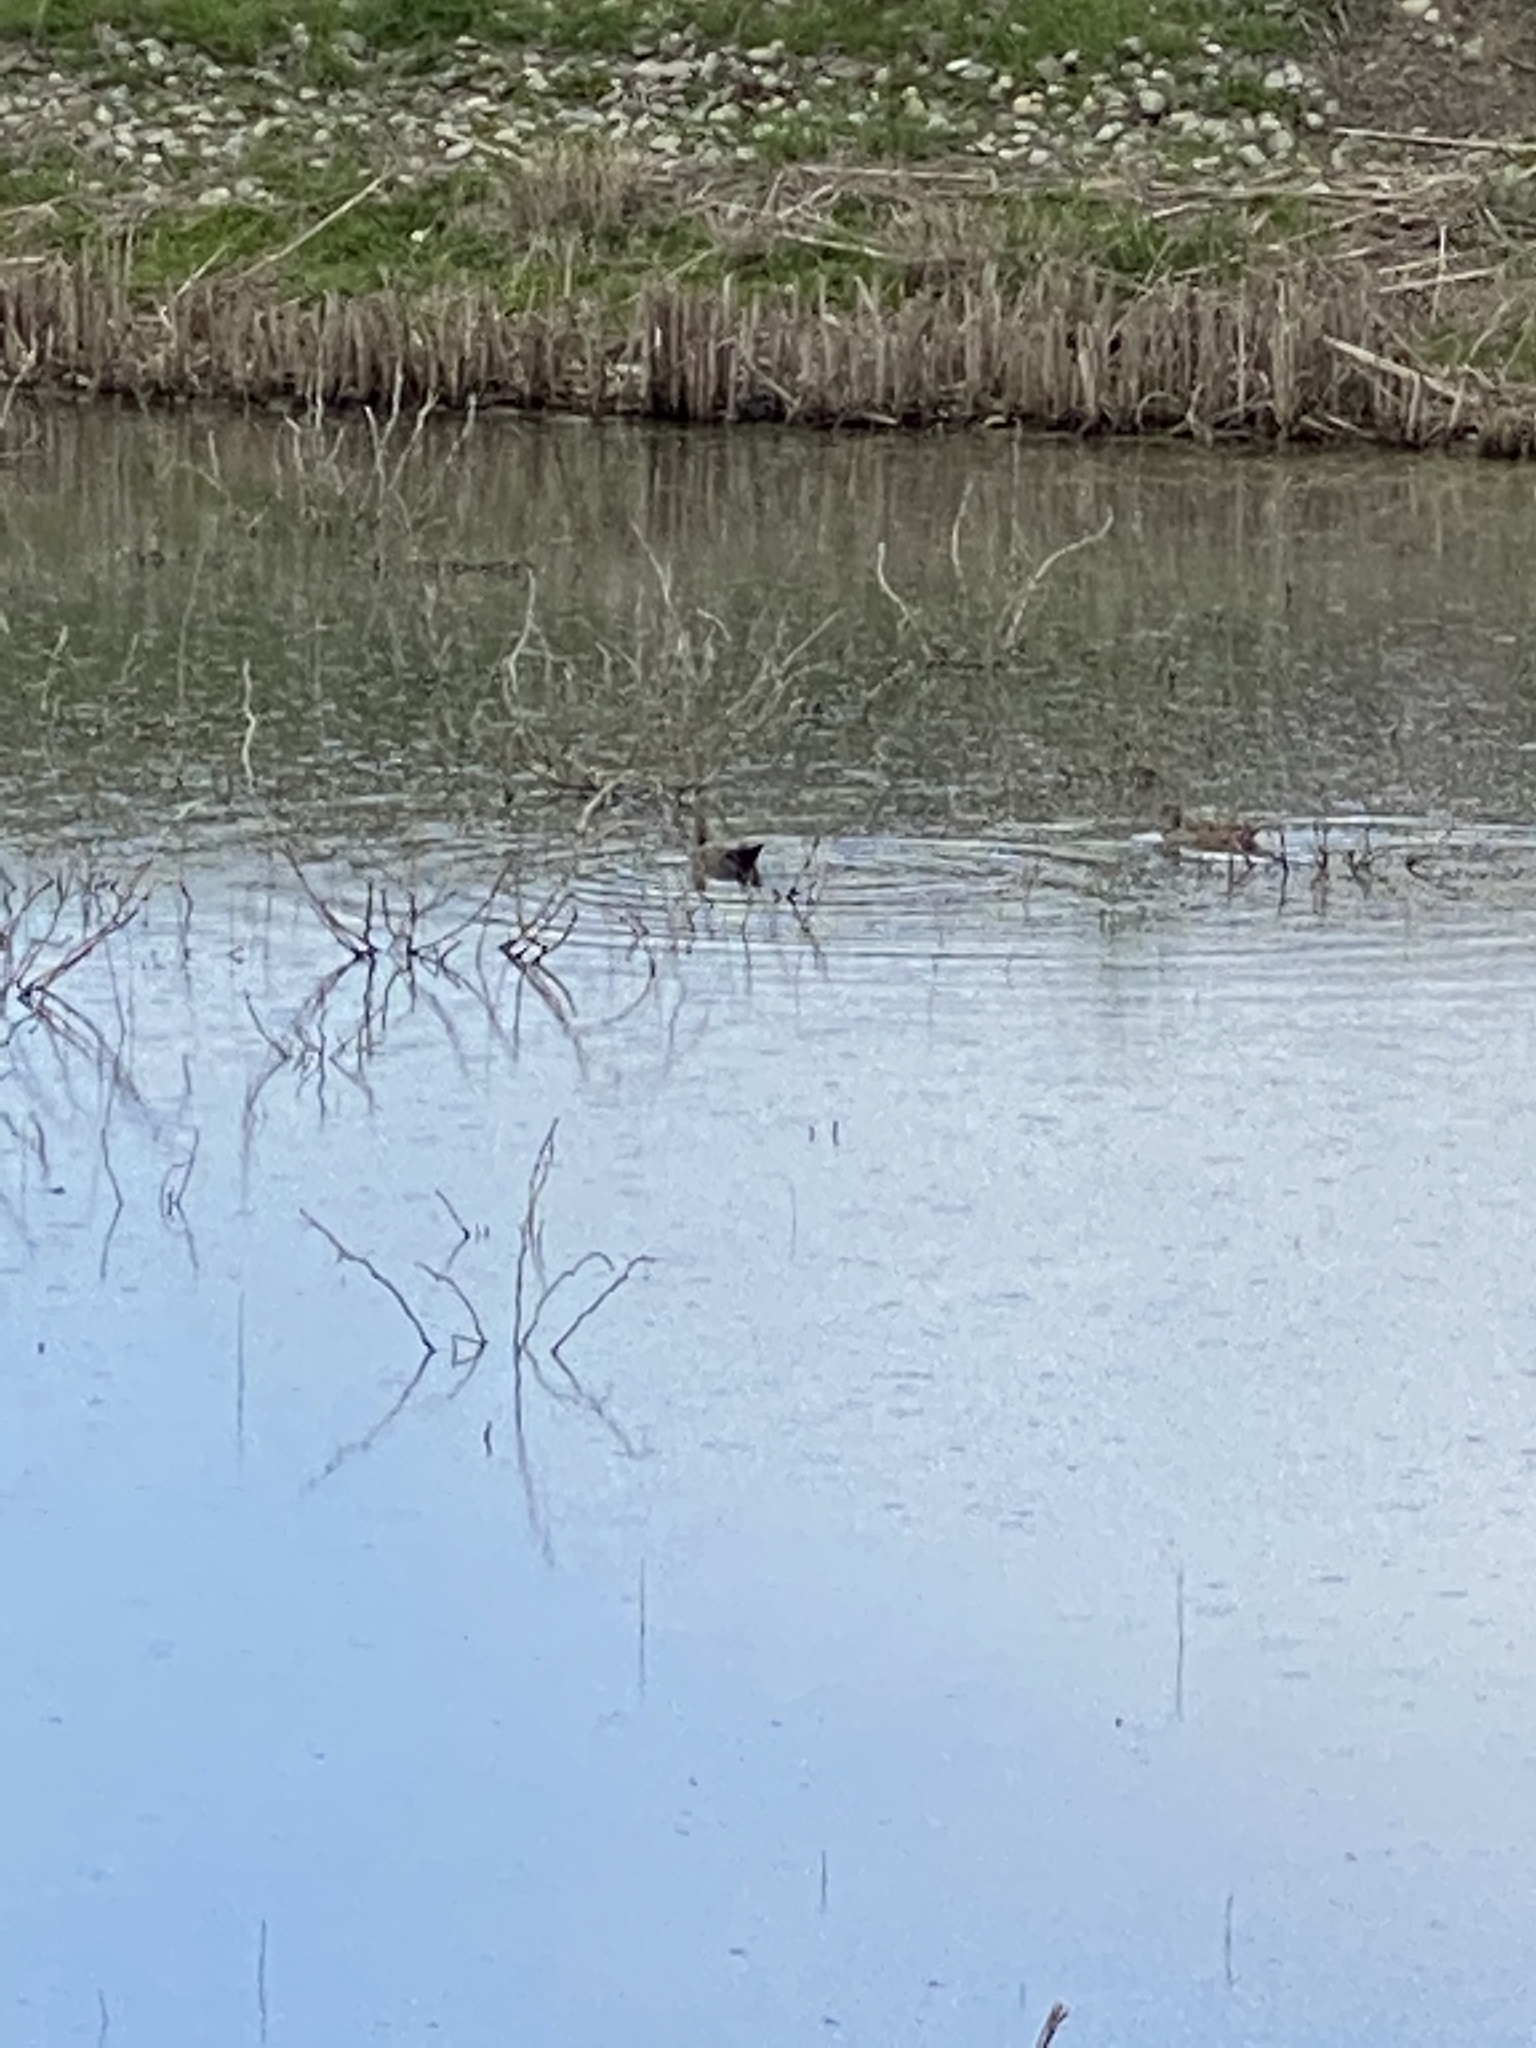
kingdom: Animalia
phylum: Chordata
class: Aves
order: Anseriformes
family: Anatidae
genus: Mareca
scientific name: Mareca strepera
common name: Gadwall
